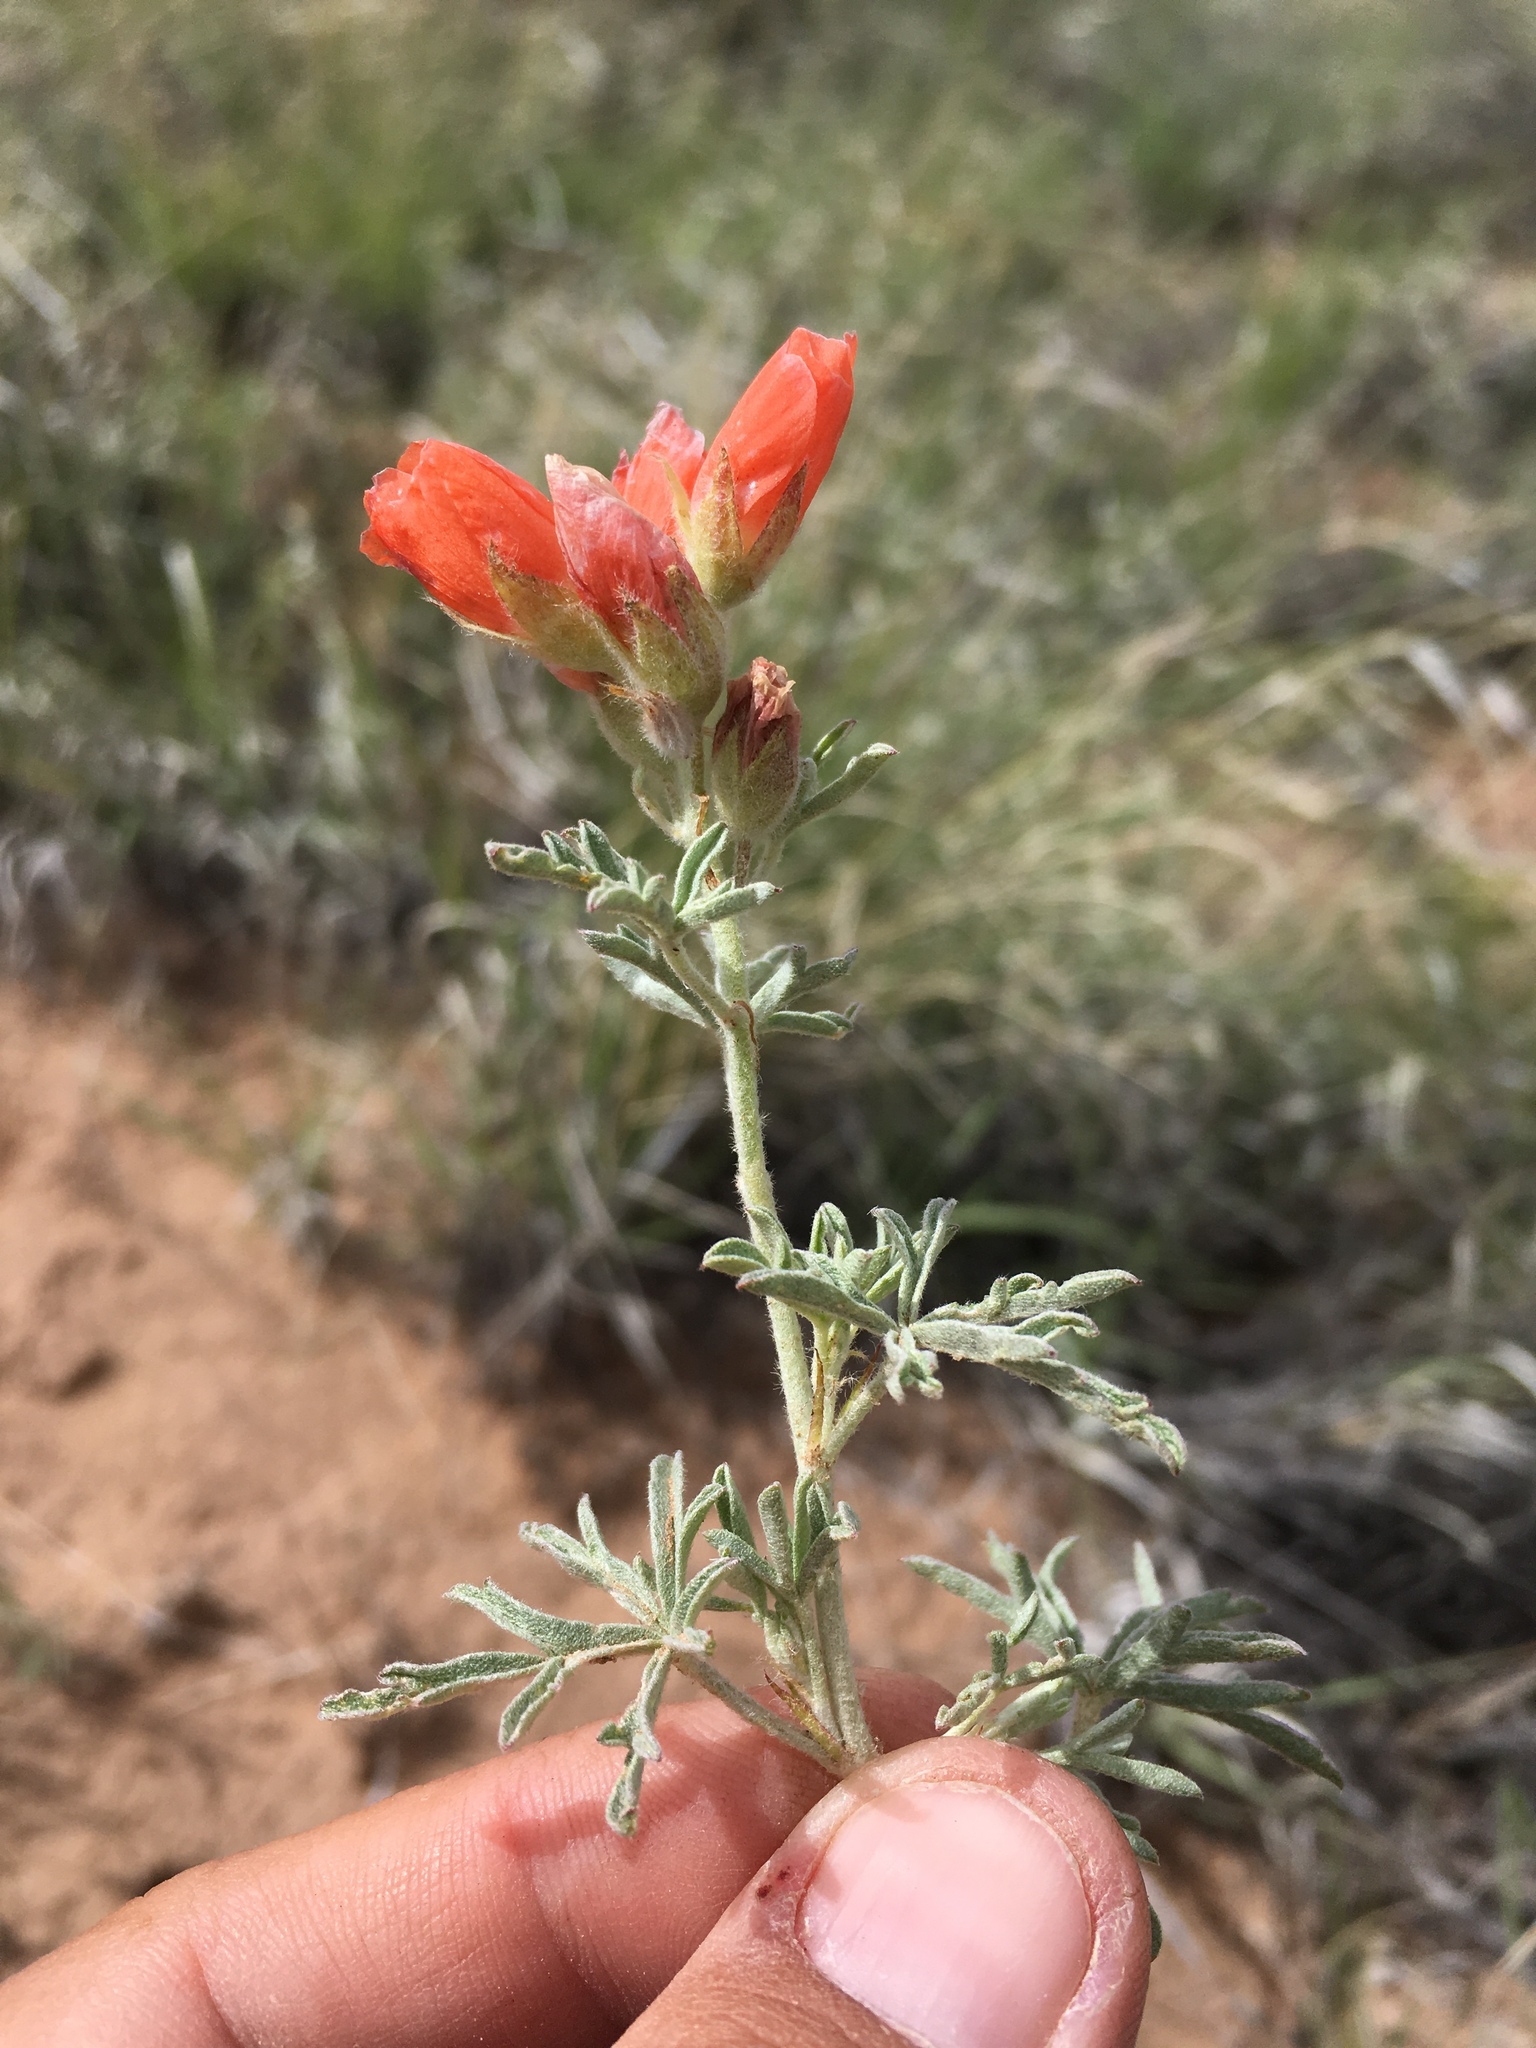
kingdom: Plantae
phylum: Tracheophyta
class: Magnoliopsida
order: Malvales
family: Malvaceae
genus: Sphaeralcea
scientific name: Sphaeralcea coccinea
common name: Moss-rose
